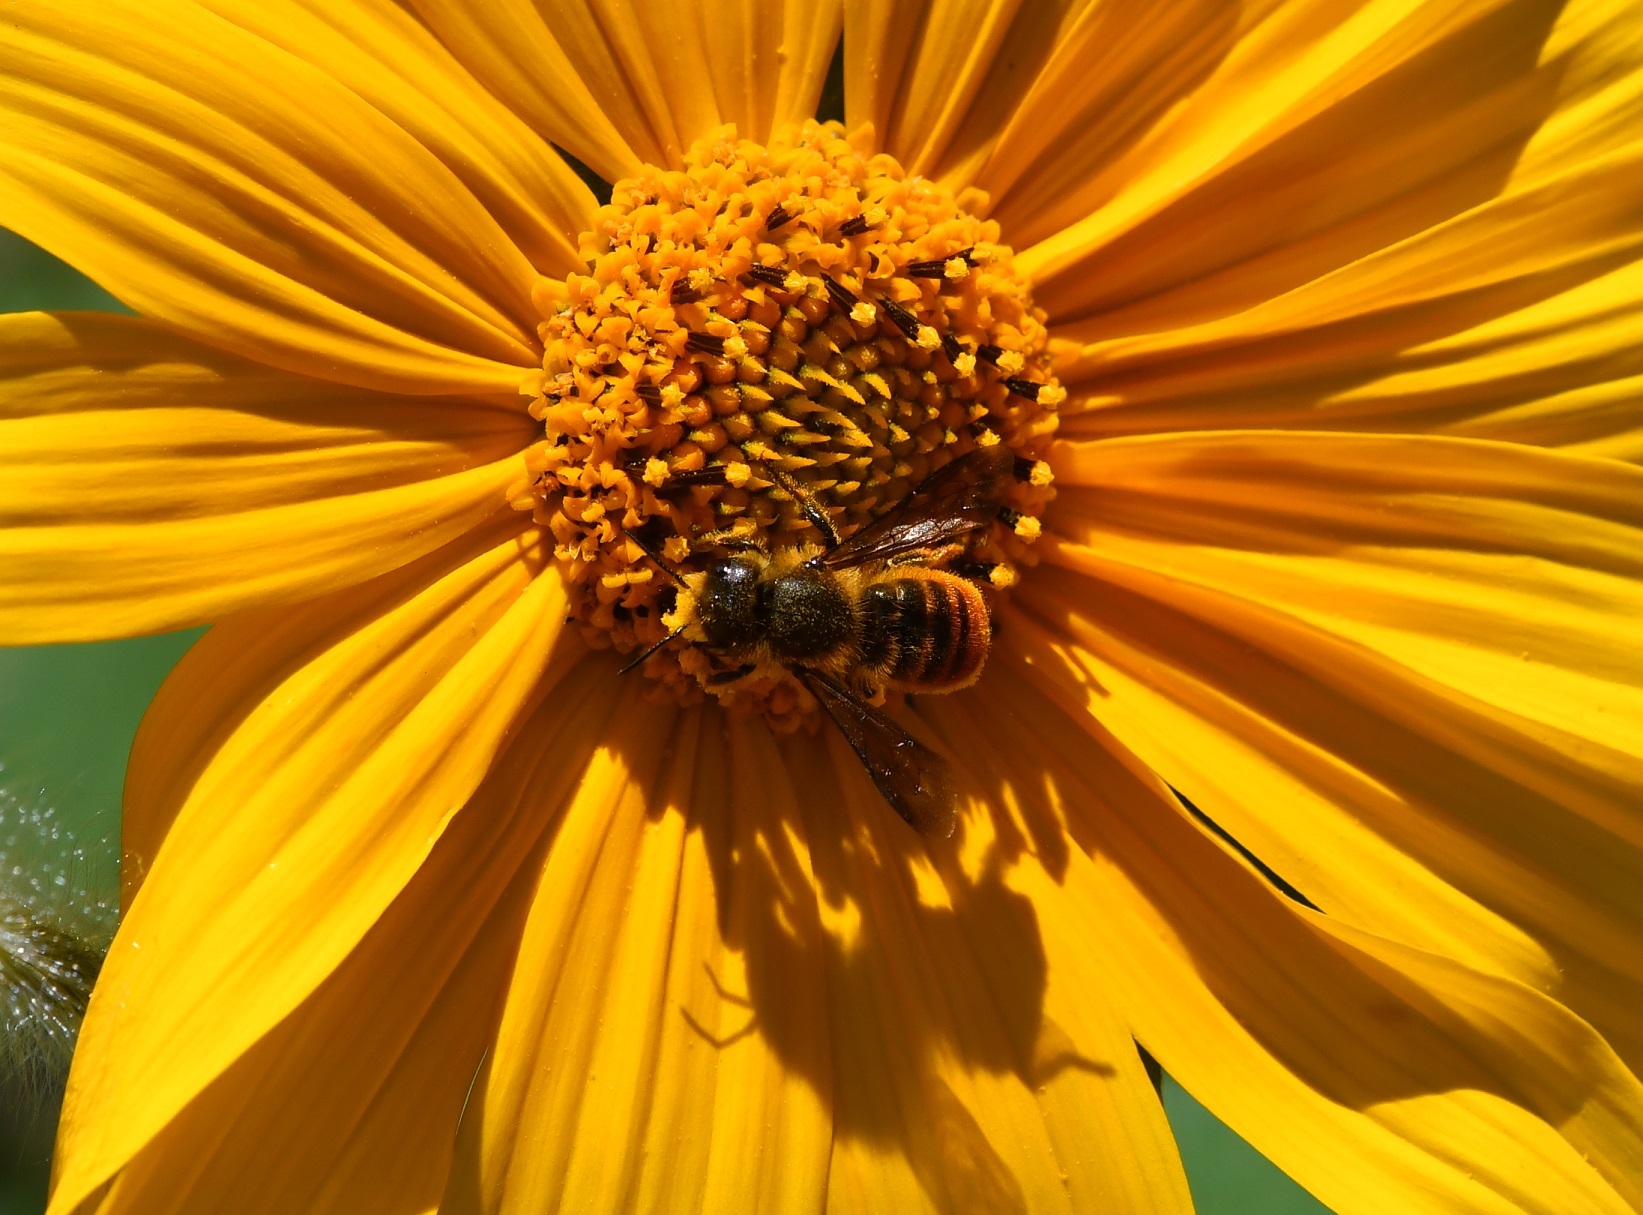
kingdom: Animalia
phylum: Arthropoda
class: Insecta
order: Hymenoptera
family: Megachilidae
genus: Osmia
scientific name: Osmia azteca
